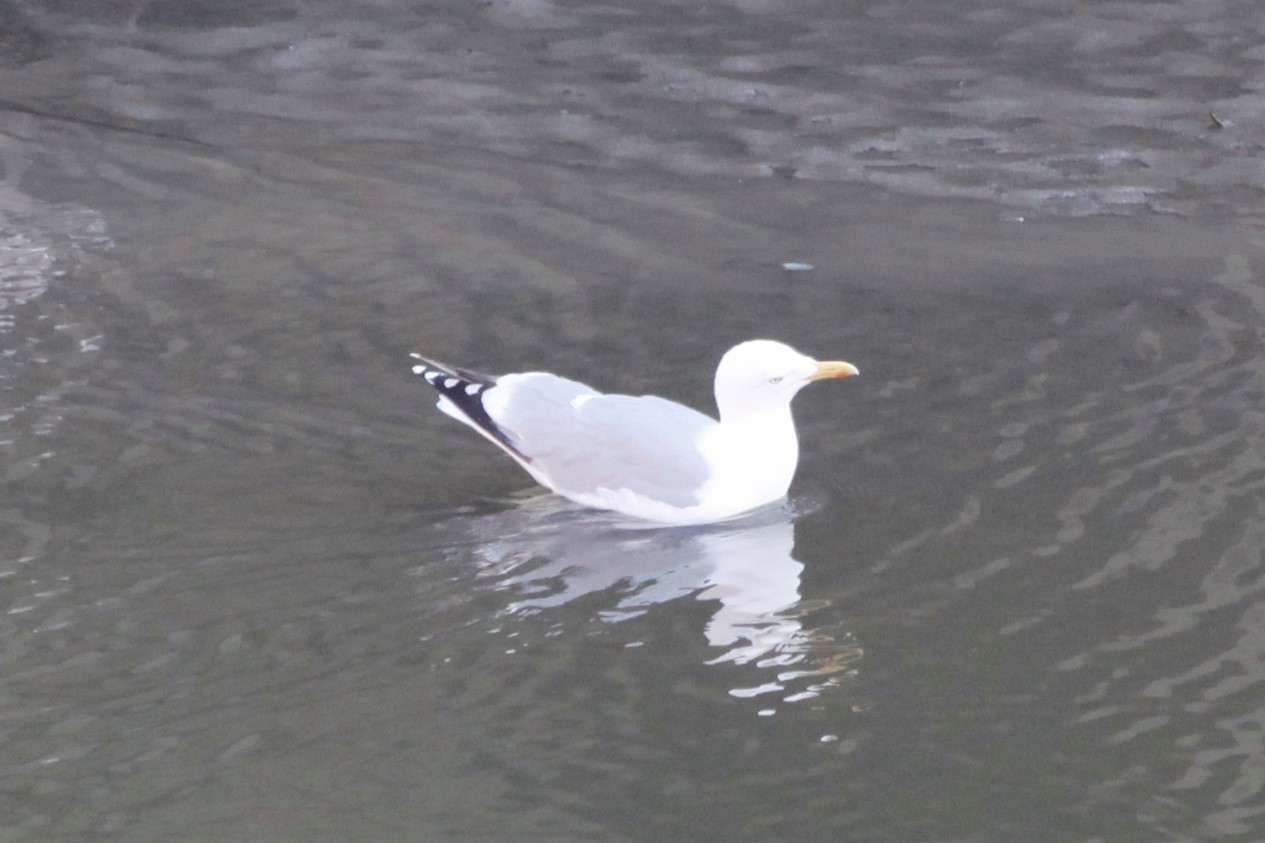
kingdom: Animalia
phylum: Chordata
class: Aves
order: Charadriiformes
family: Laridae
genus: Larus
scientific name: Larus argentatus
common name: Herring gull
